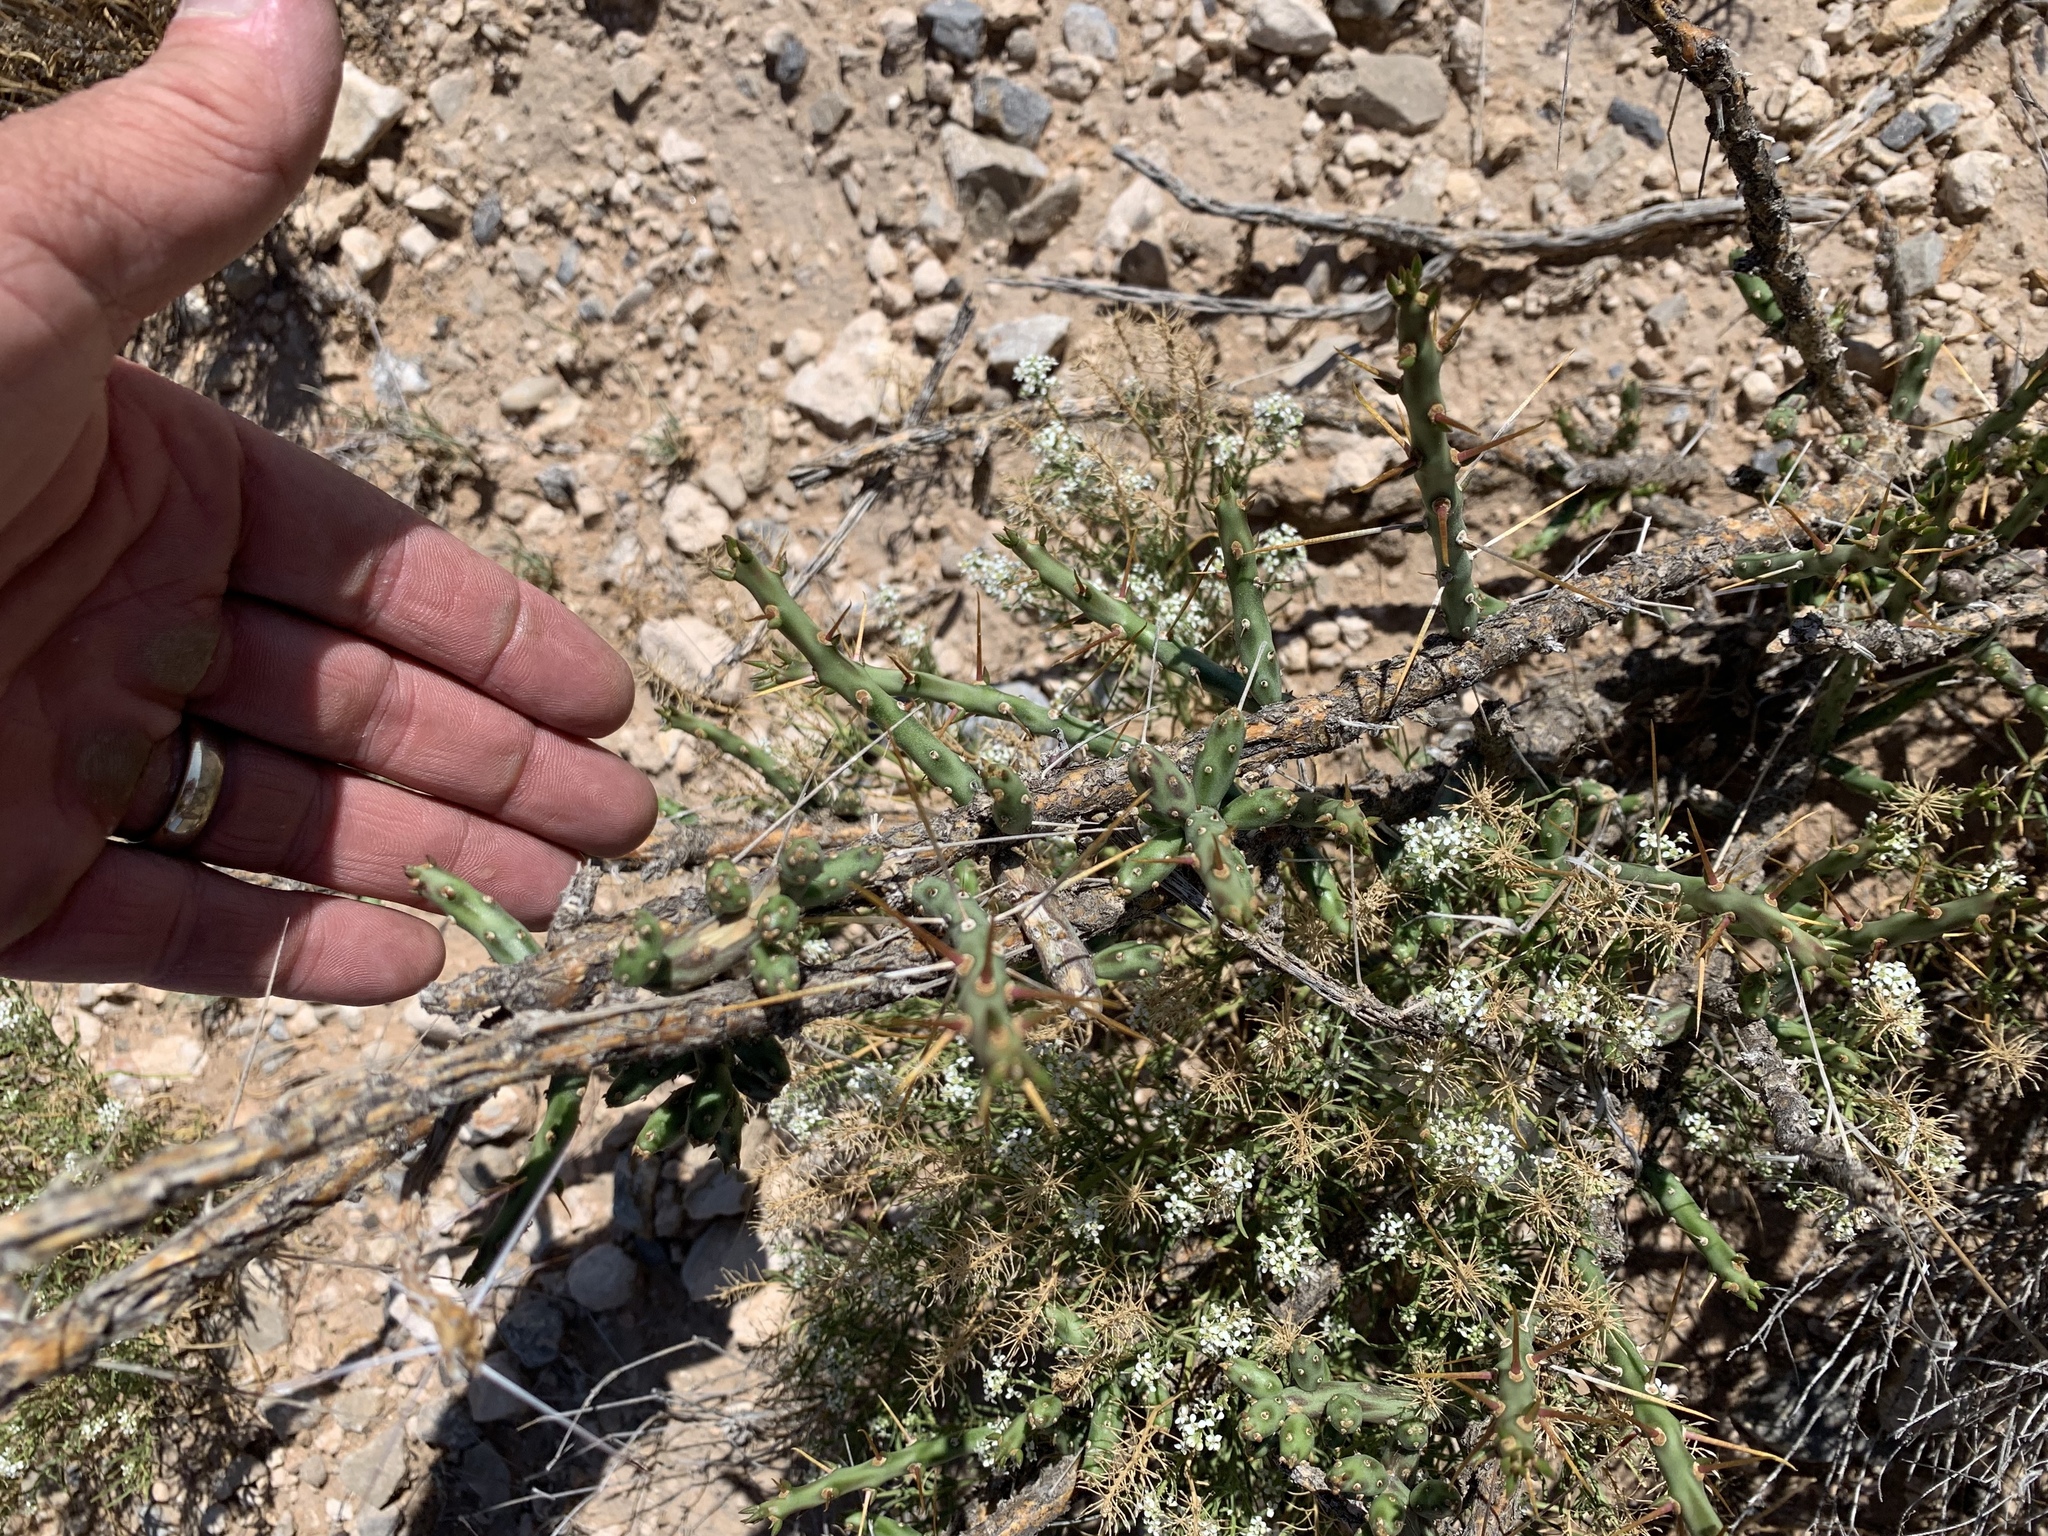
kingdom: Plantae
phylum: Tracheophyta
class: Magnoliopsida
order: Caryophyllales
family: Cactaceae
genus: Cylindropuntia
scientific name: Cylindropuntia leptocaulis
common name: Christmas cactus
